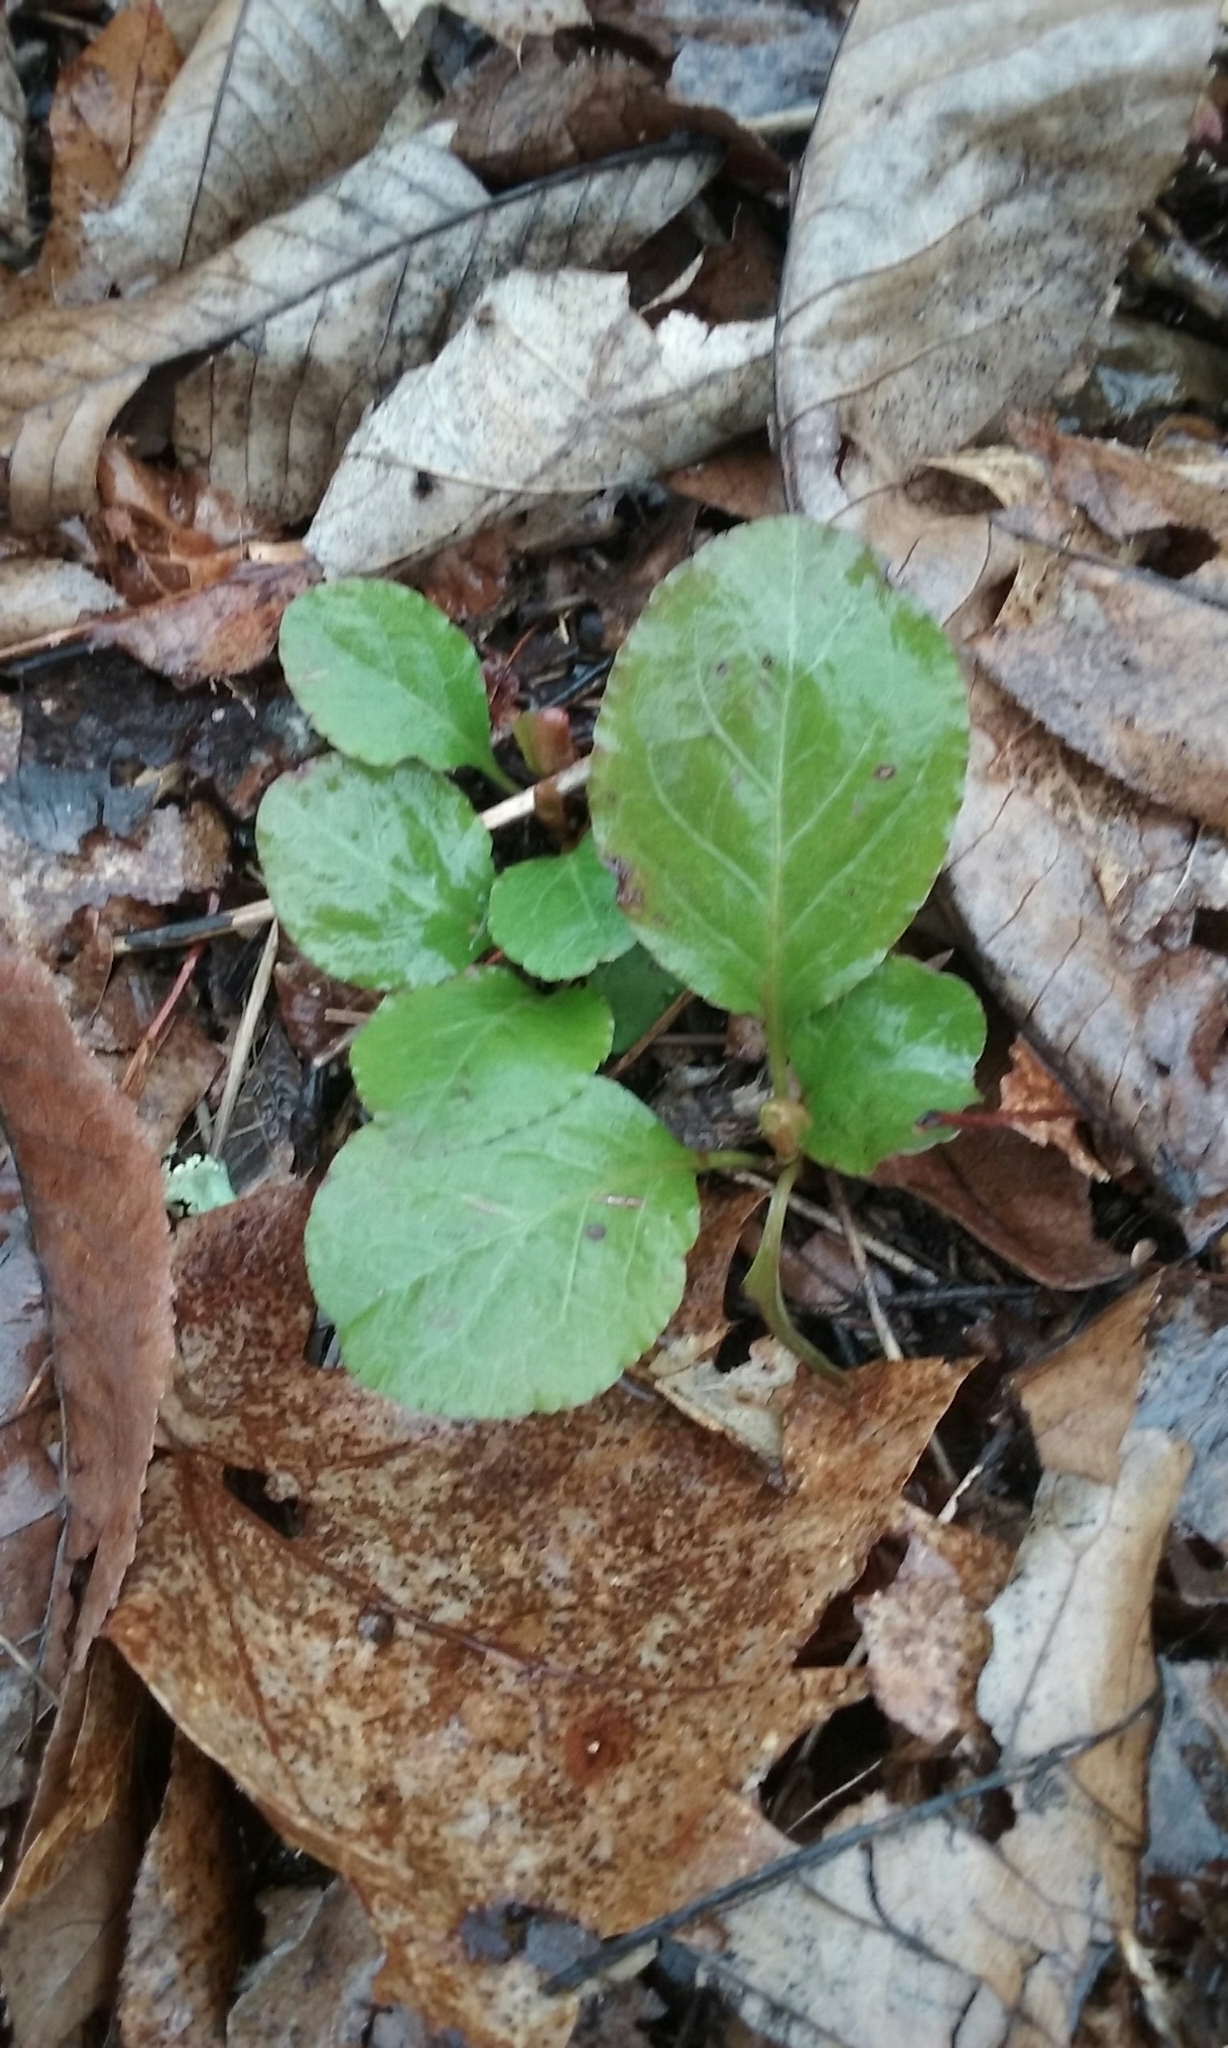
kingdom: Plantae
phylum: Tracheophyta
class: Magnoliopsida
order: Ericales
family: Ericaceae
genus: Pyrola
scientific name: Pyrola elliptica
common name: Shinleaf
